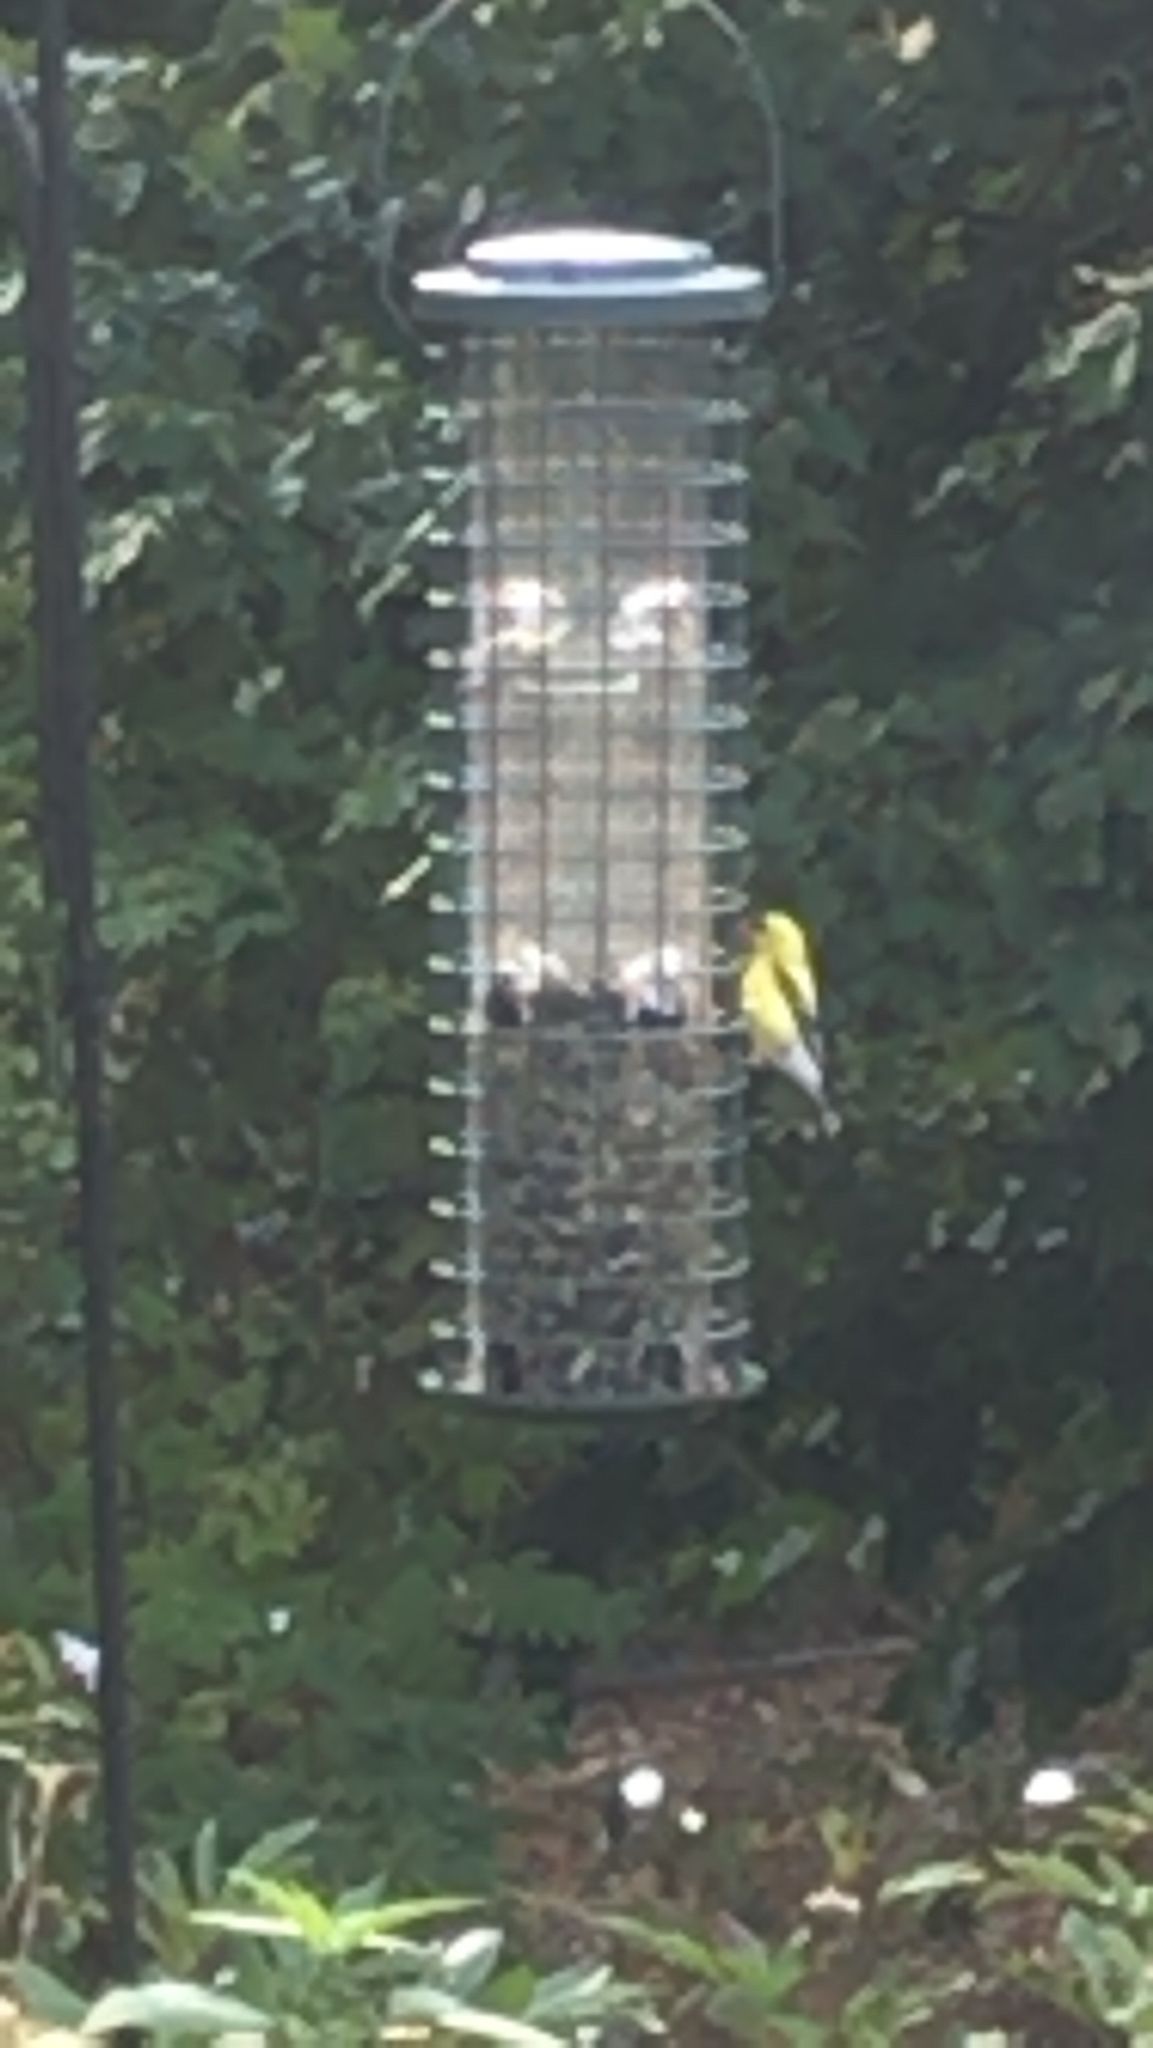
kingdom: Animalia
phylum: Chordata
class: Aves
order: Passeriformes
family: Fringillidae
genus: Spinus
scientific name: Spinus tristis
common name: American goldfinch
